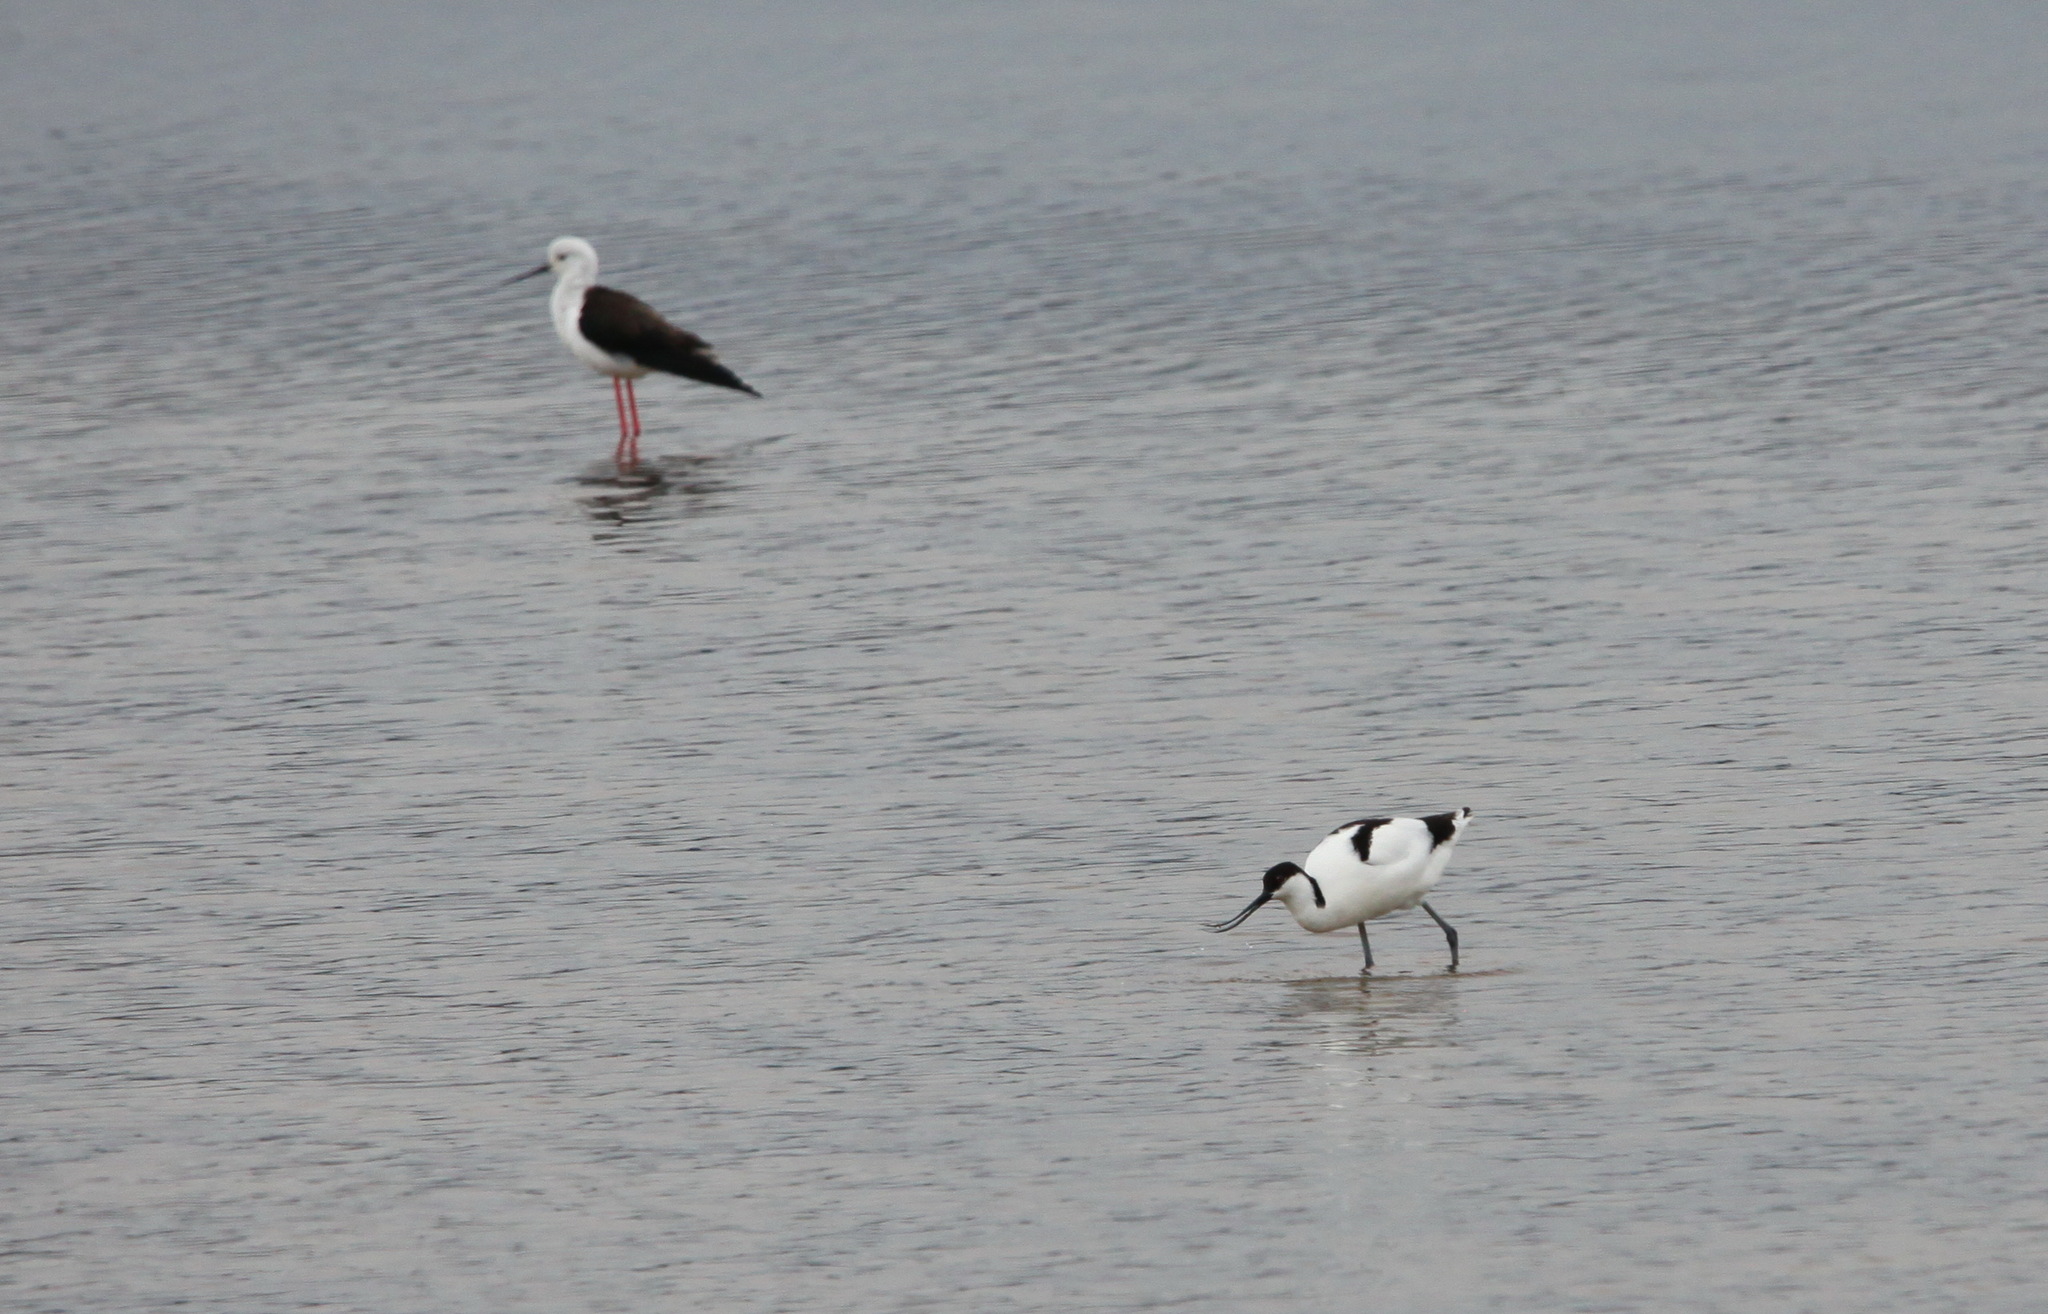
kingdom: Animalia
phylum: Chordata
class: Aves
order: Charadriiformes
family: Recurvirostridae
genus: Recurvirostra
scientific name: Recurvirostra avosetta
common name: Pied avocet
